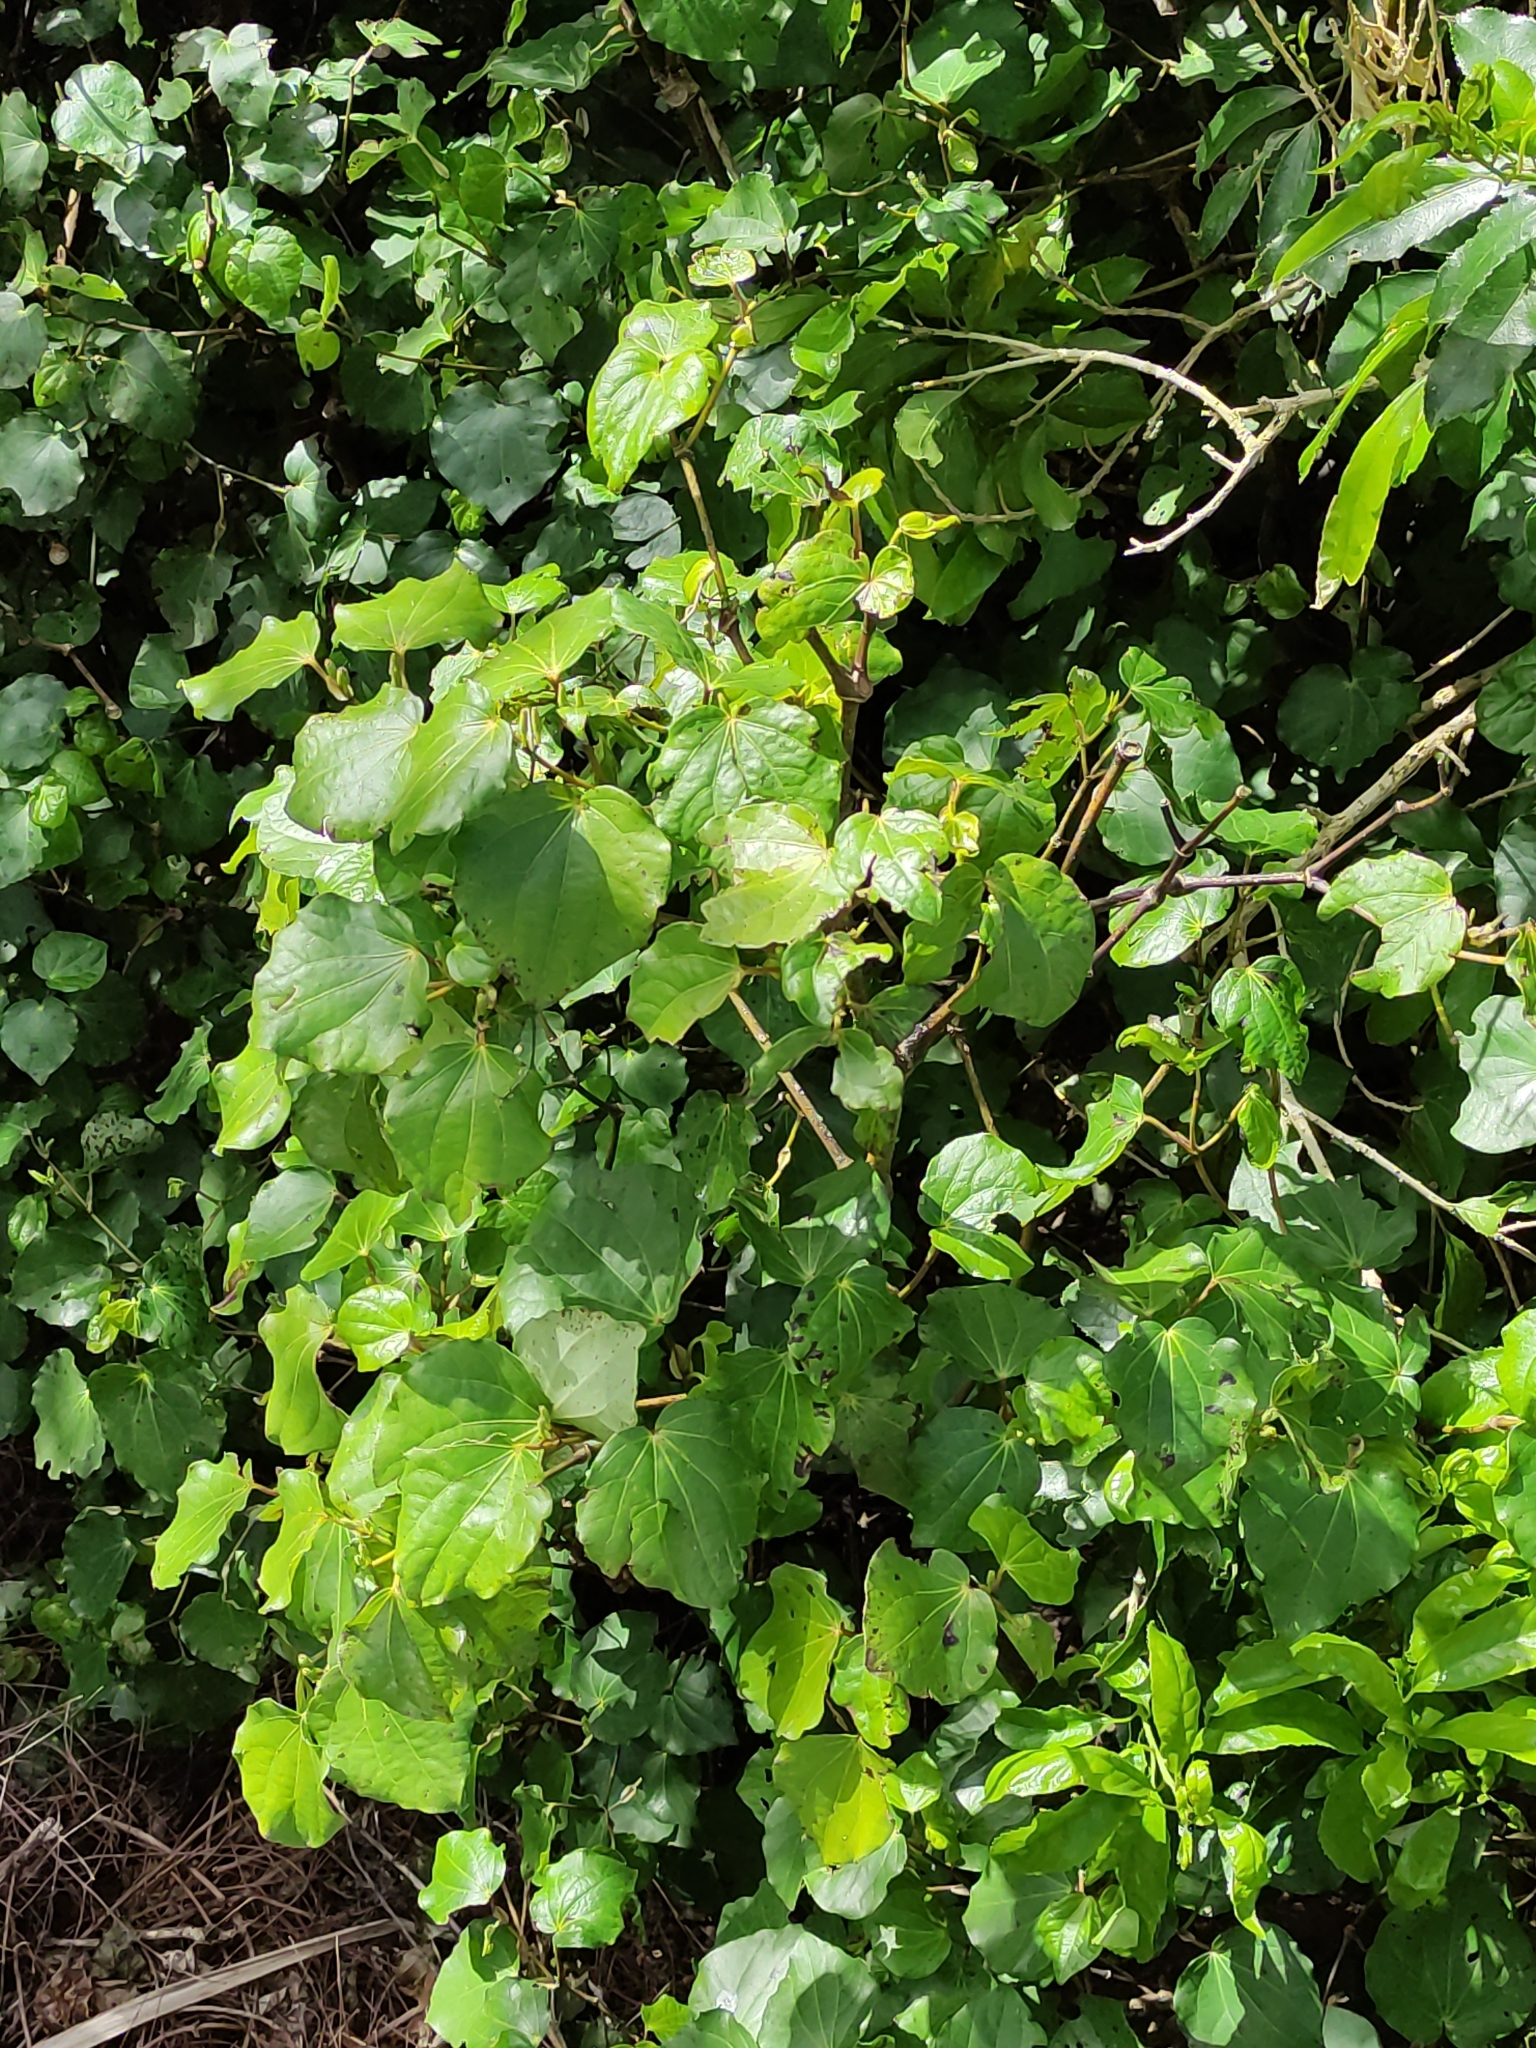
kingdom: Plantae
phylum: Tracheophyta
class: Magnoliopsida
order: Piperales
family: Piperaceae
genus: Macropiper
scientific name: Macropiper excelsum
